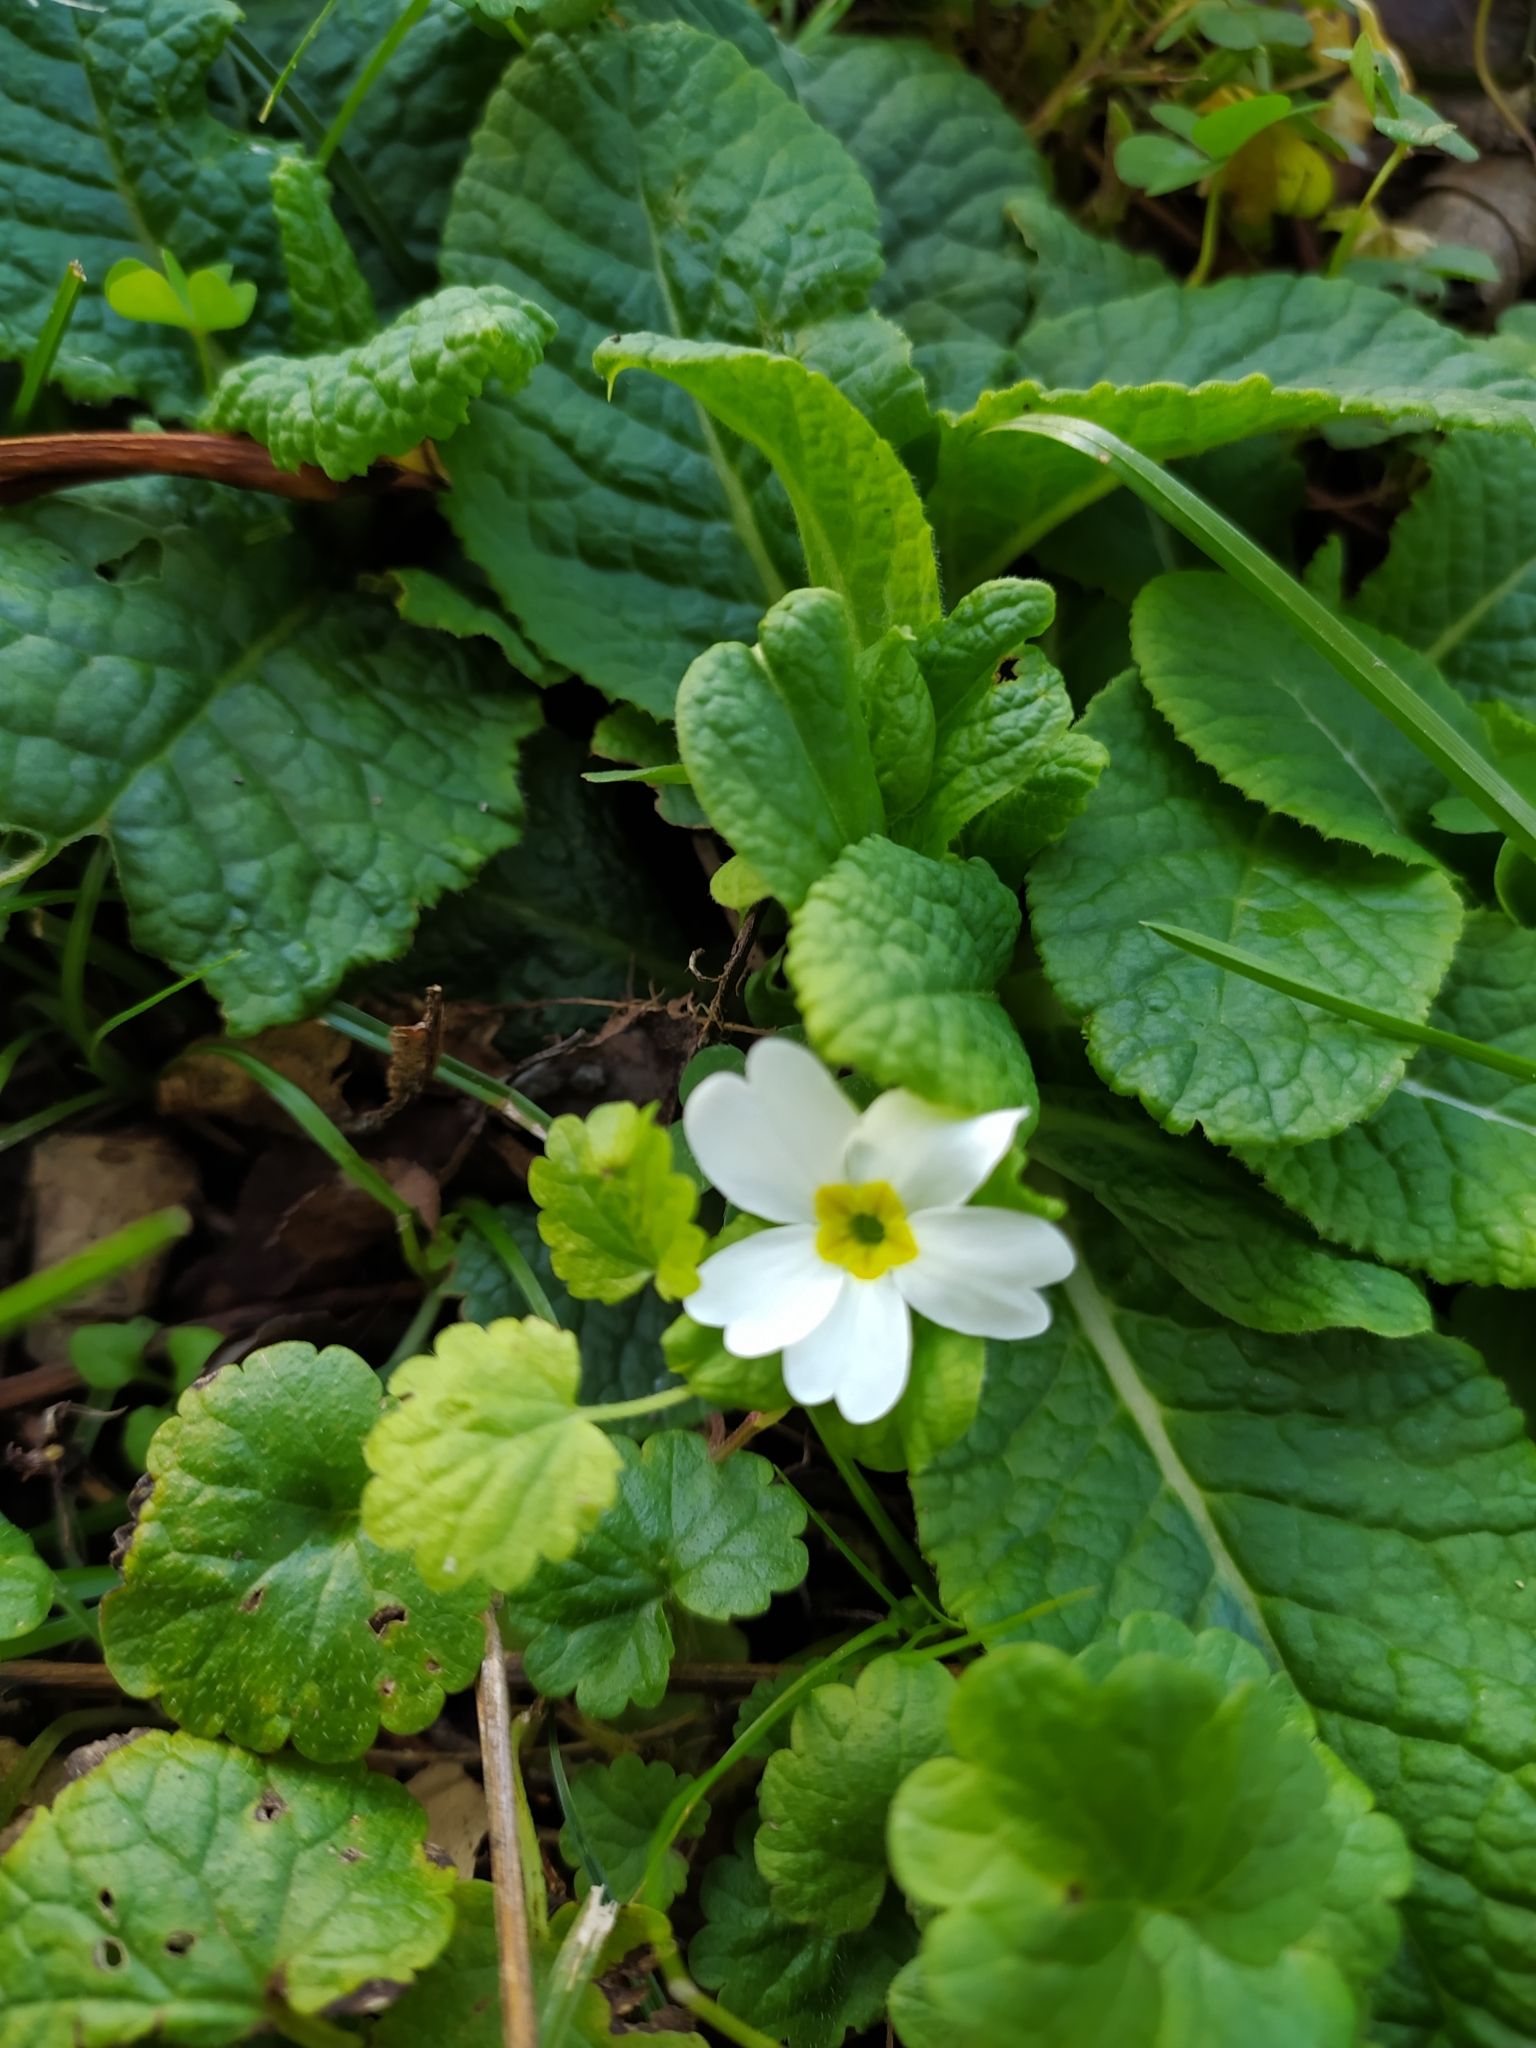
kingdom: Plantae
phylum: Tracheophyta
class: Magnoliopsida
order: Ericales
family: Primulaceae
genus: Primula
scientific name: Primula vulgaris
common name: Primrose
